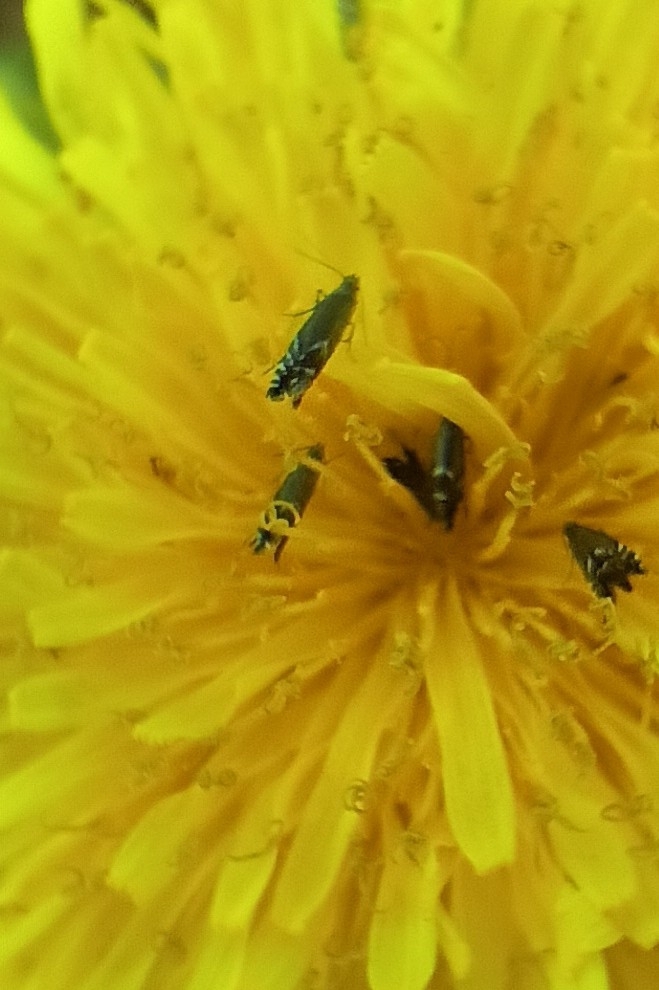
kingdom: Animalia
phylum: Arthropoda
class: Insecta
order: Lepidoptera
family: Glyphipterigidae
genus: Glyphipterix
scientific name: Glyphipterix simpliciella
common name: Cocksfoot moth
